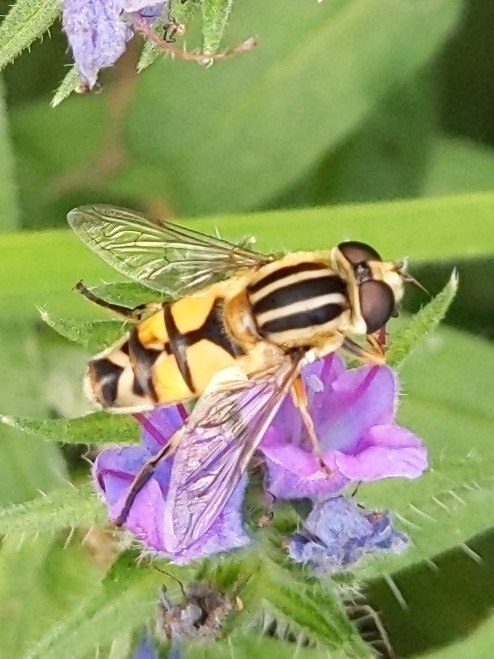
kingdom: Animalia
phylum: Arthropoda
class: Insecta
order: Diptera
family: Syrphidae
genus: Helophilus
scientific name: Helophilus trivittatus
